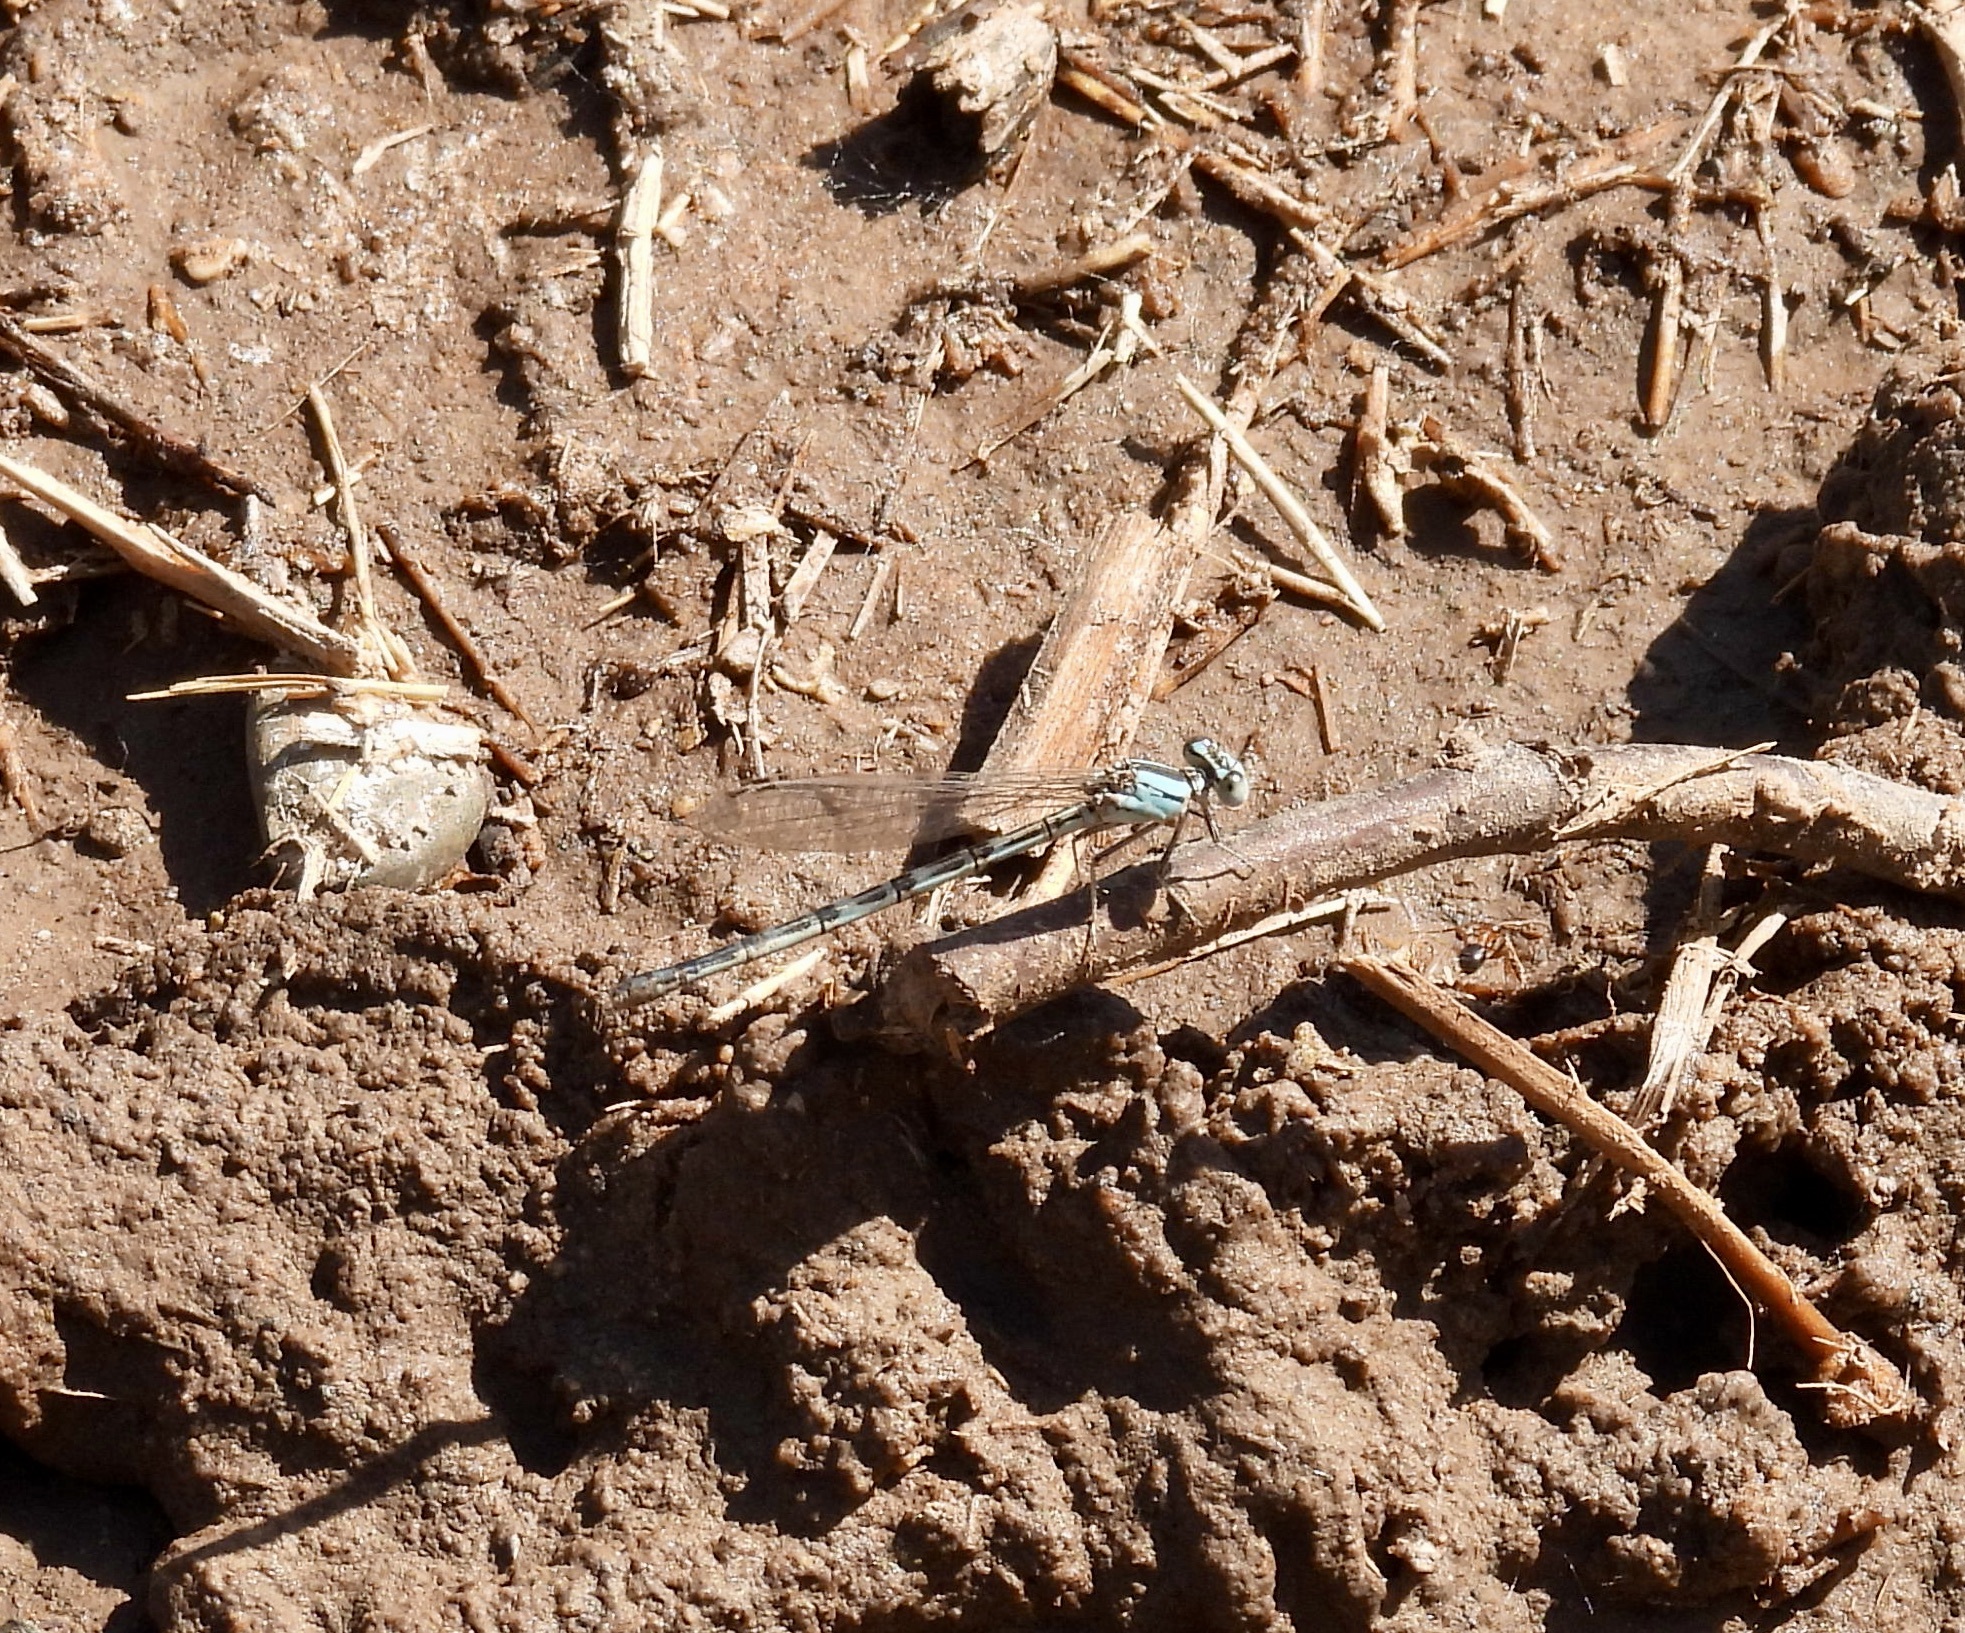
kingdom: Animalia
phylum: Arthropoda
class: Insecta
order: Odonata
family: Coenagrionidae
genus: Argia
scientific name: Argia alberta
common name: Paiute dancer
